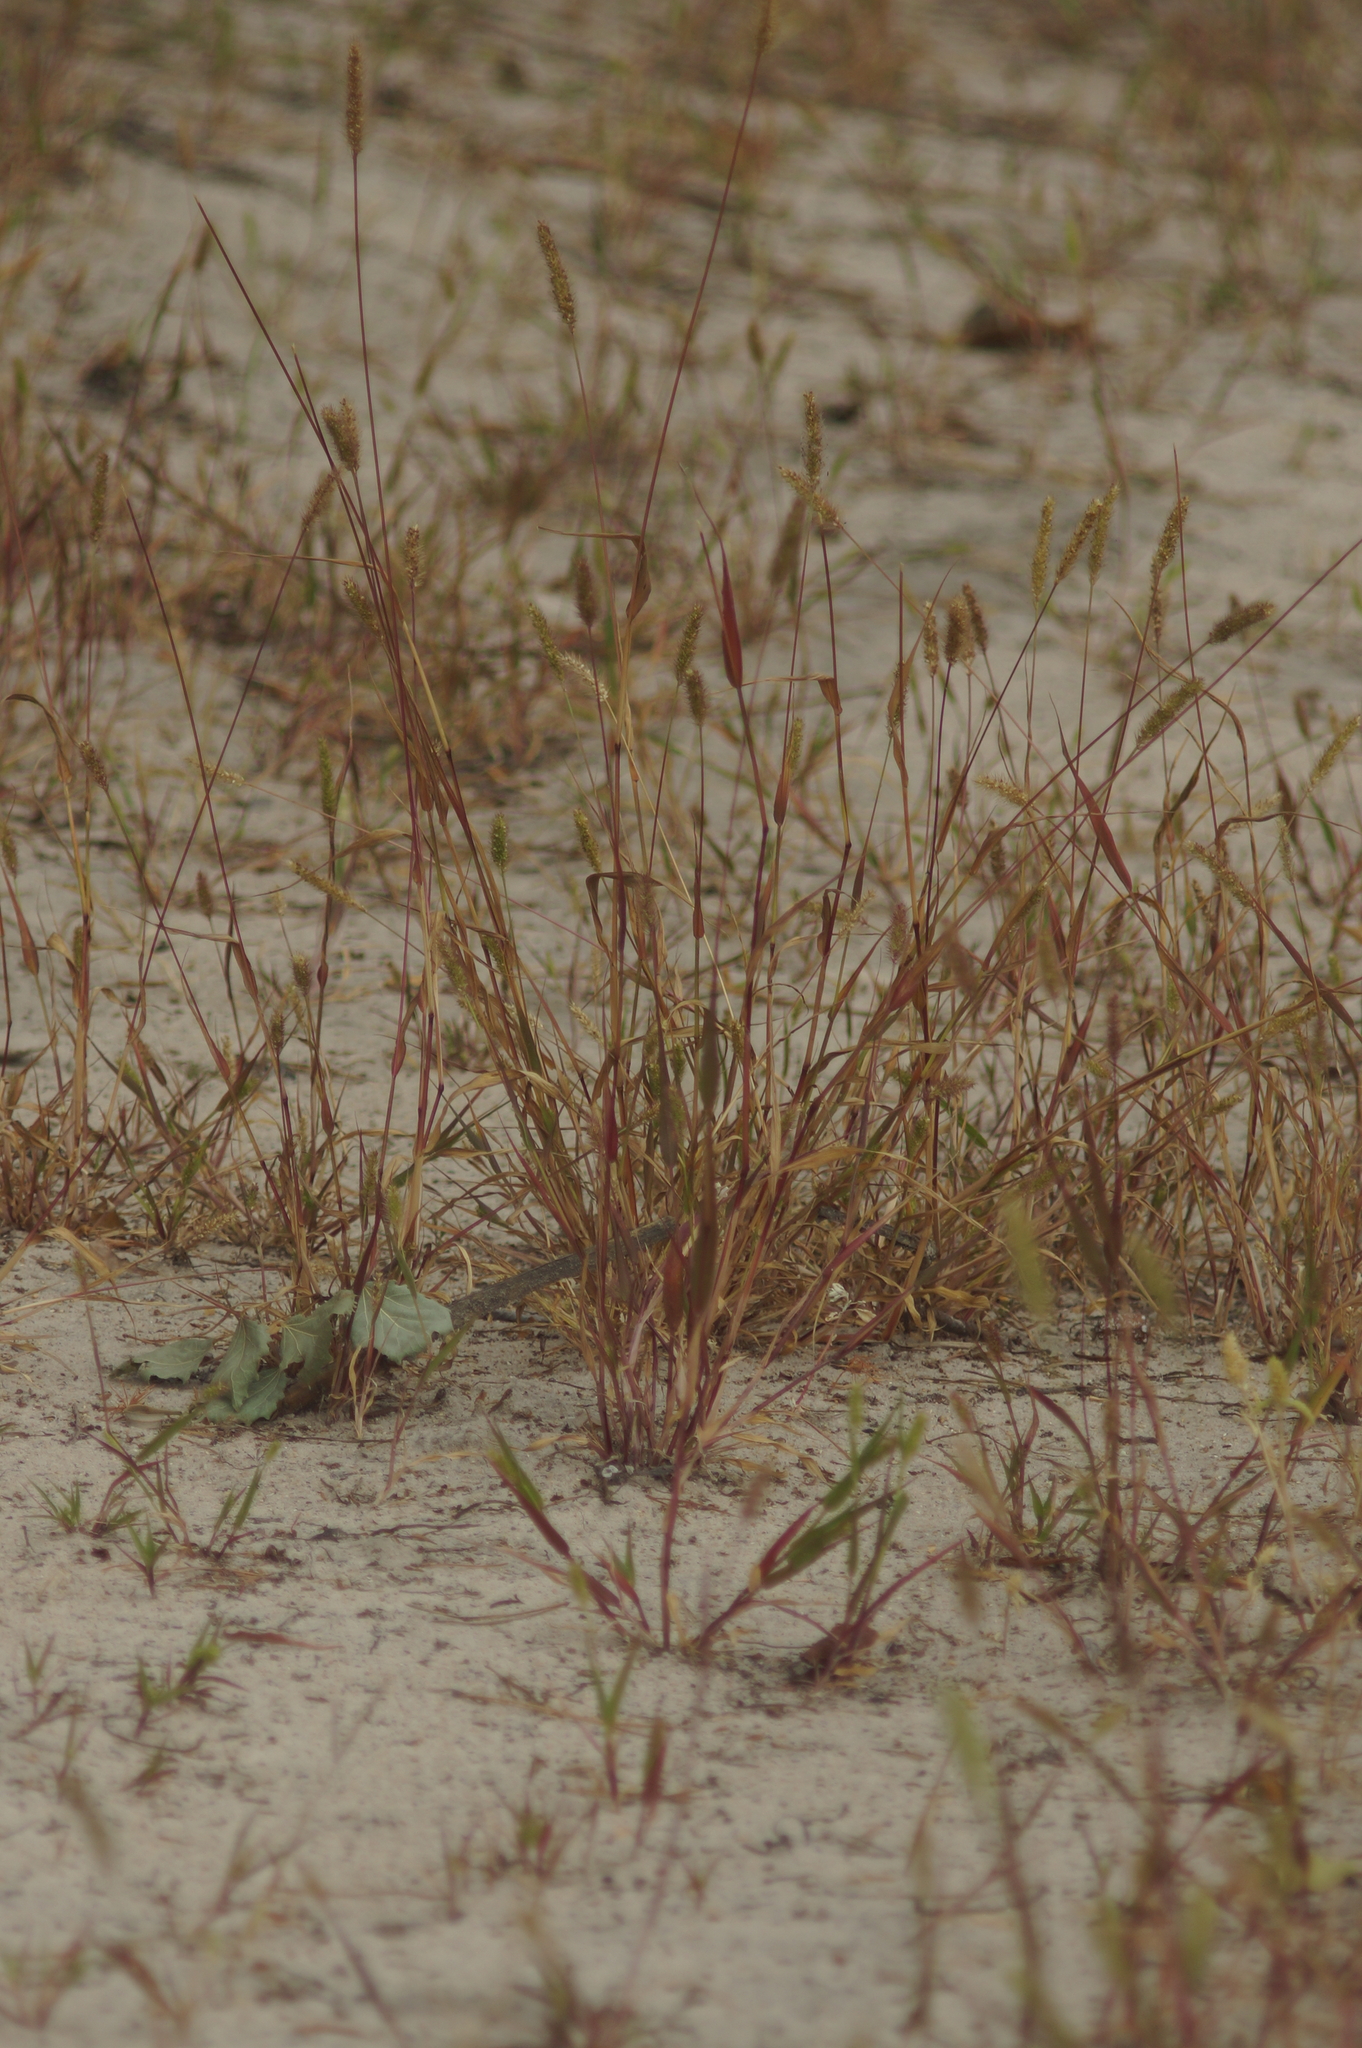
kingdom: Plantae
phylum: Tracheophyta
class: Liliopsida
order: Poales
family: Poaceae
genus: Setaria
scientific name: Setaria viridis
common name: Green bristlegrass
